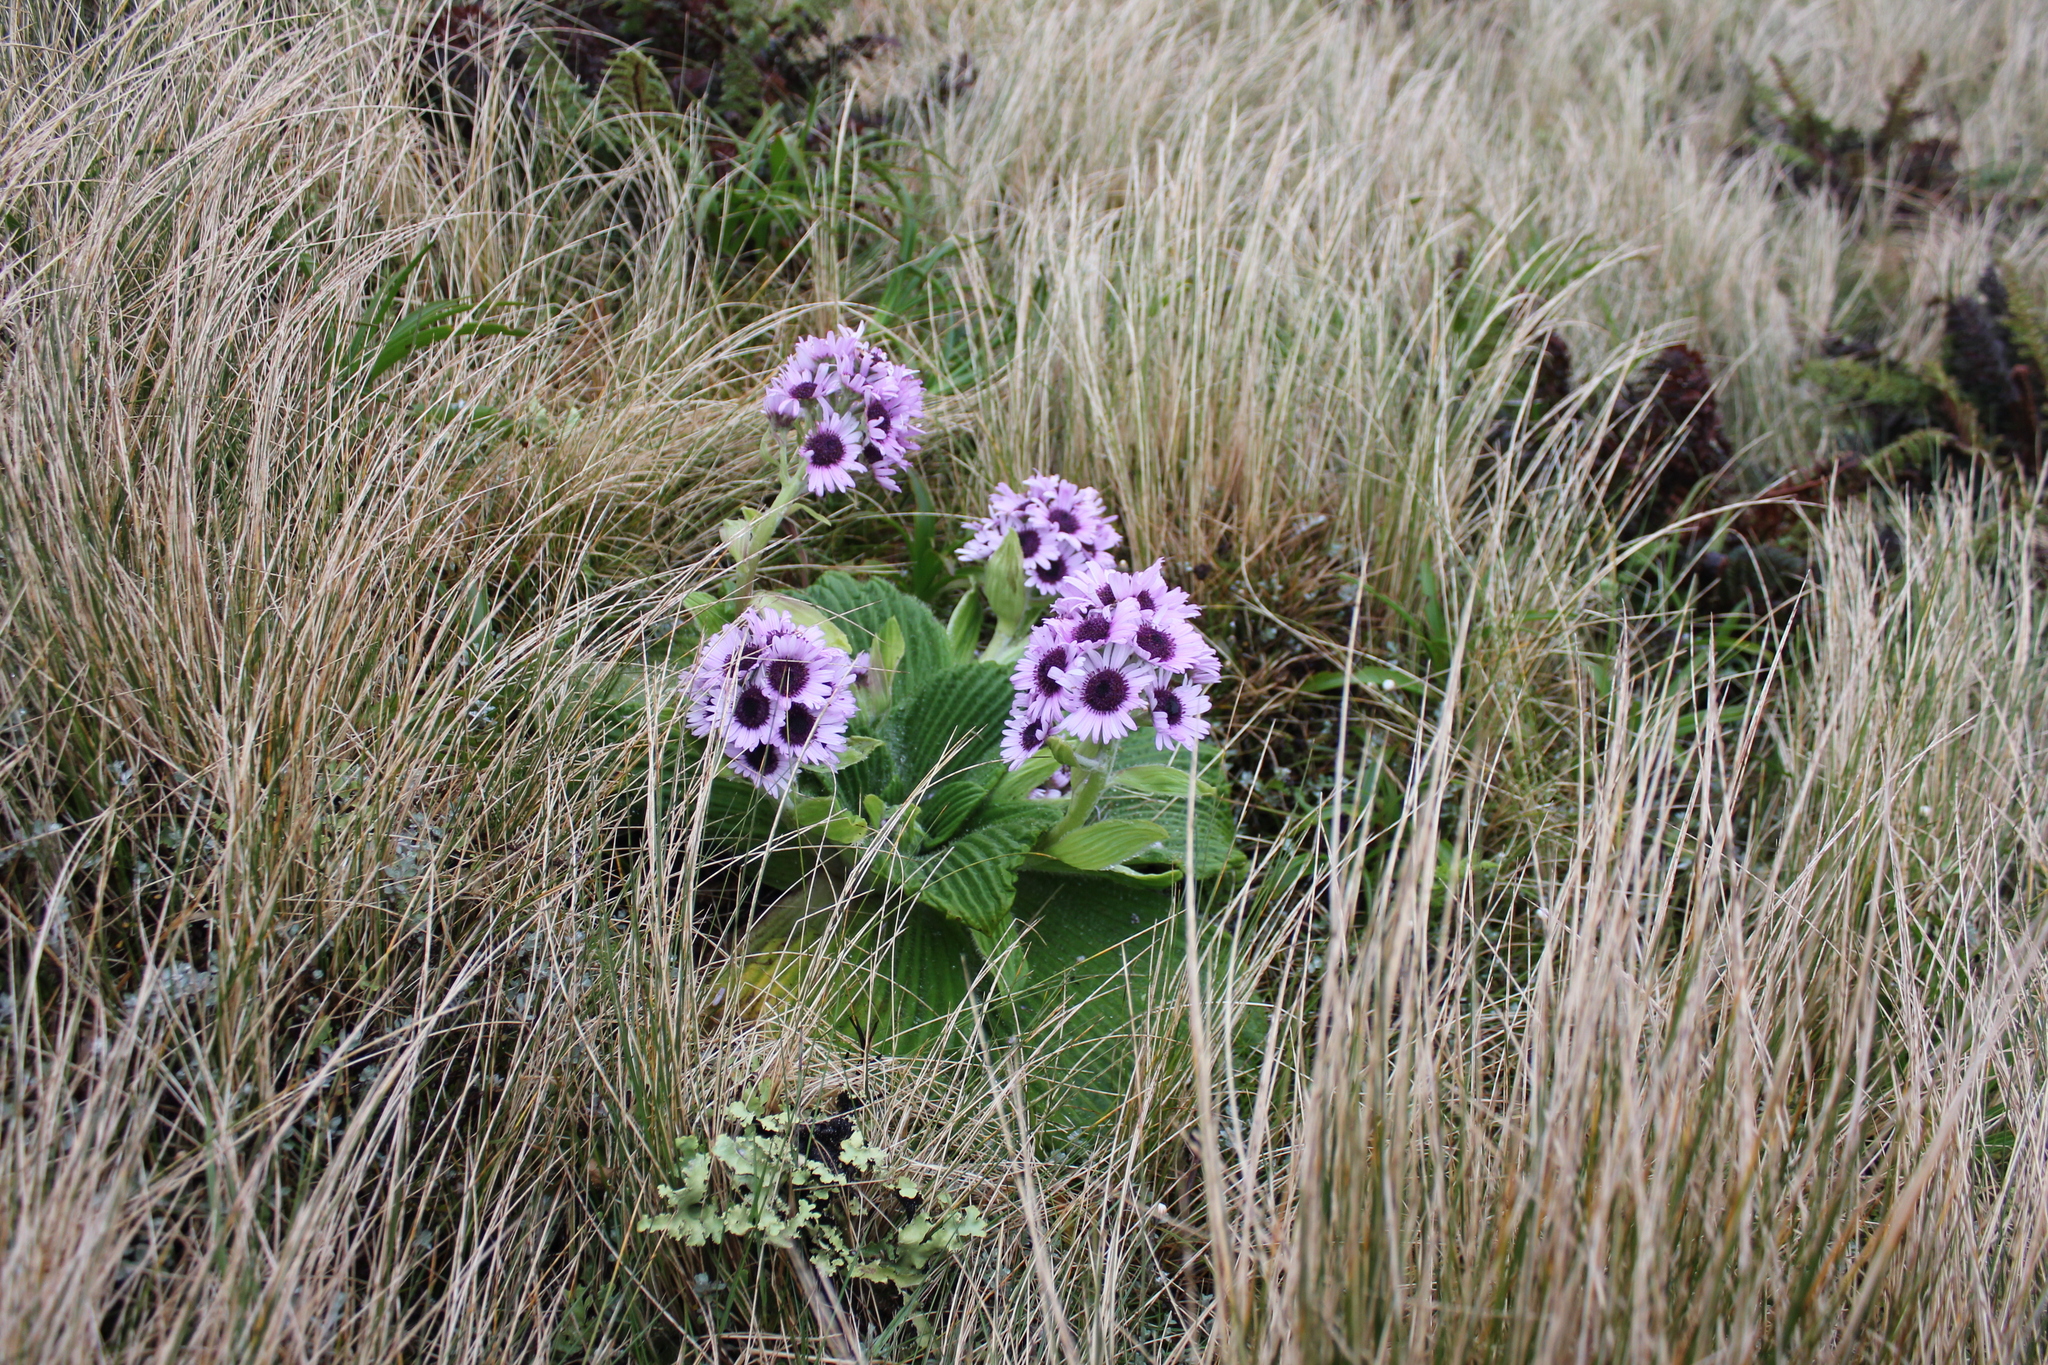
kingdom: Plantae
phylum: Tracheophyta
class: Magnoliopsida
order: Asterales
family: Asteraceae
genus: Pleurophyllum
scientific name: Pleurophyllum speciosum
